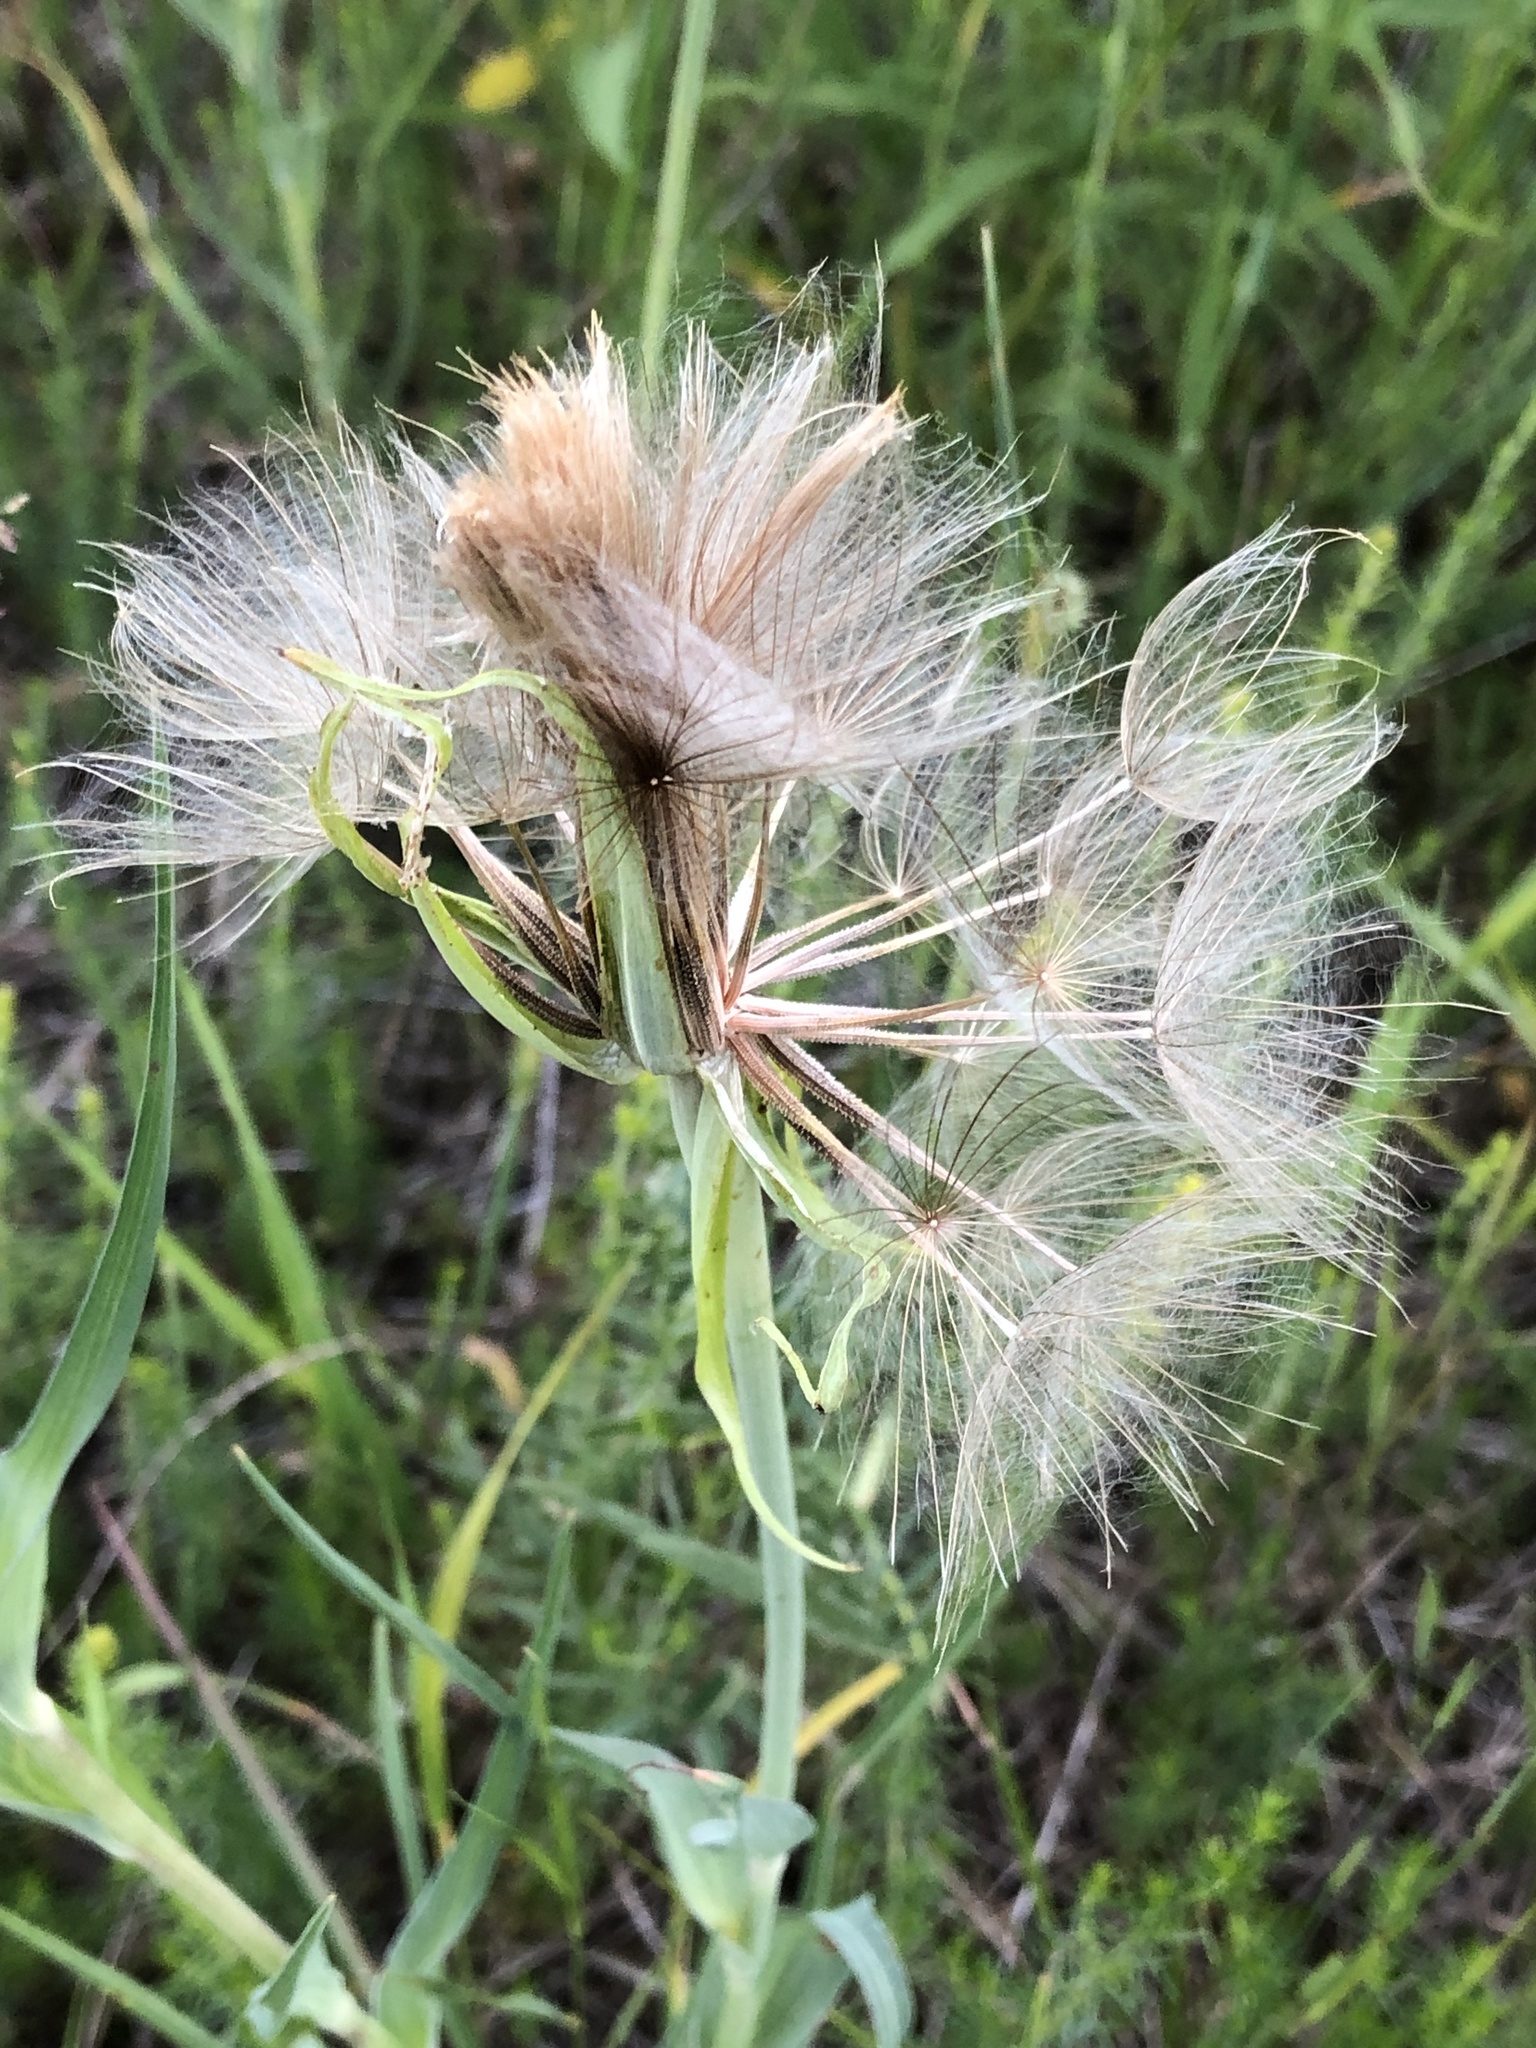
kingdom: Plantae
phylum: Tracheophyta
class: Magnoliopsida
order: Asterales
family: Asteraceae
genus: Tragopogon
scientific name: Tragopogon dubius
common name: Yellow salsify
